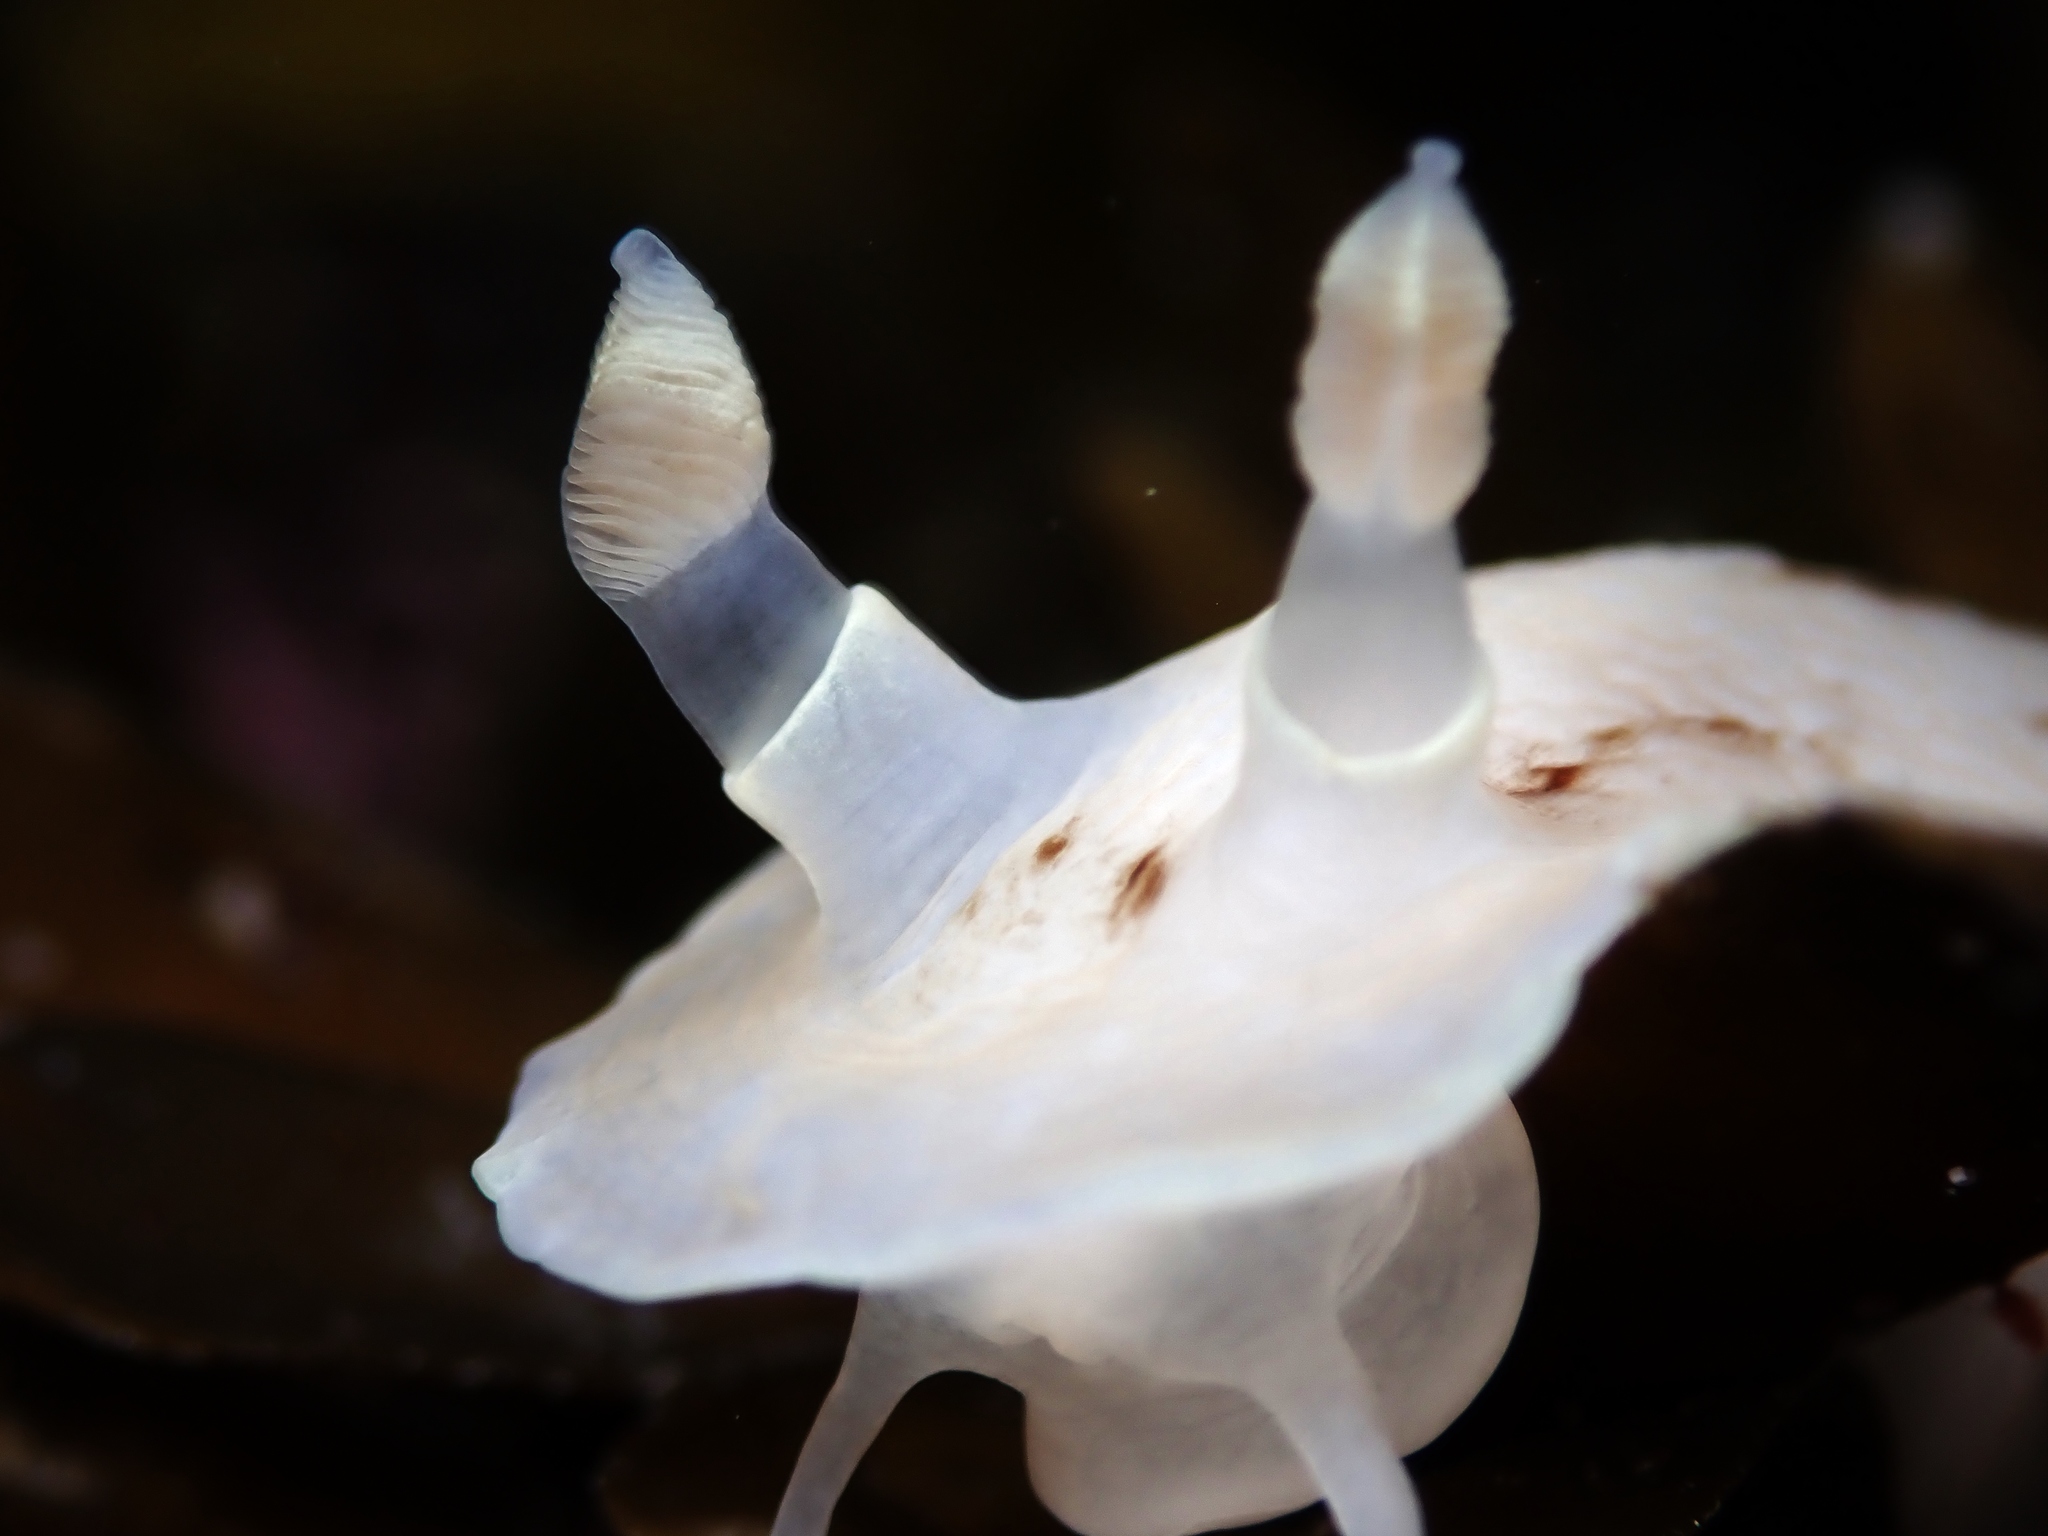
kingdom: Animalia
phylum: Mollusca
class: Gastropoda
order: Nudibranchia
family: Dorididae
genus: Aphelodoris
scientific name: Aphelodoris luctuosa
